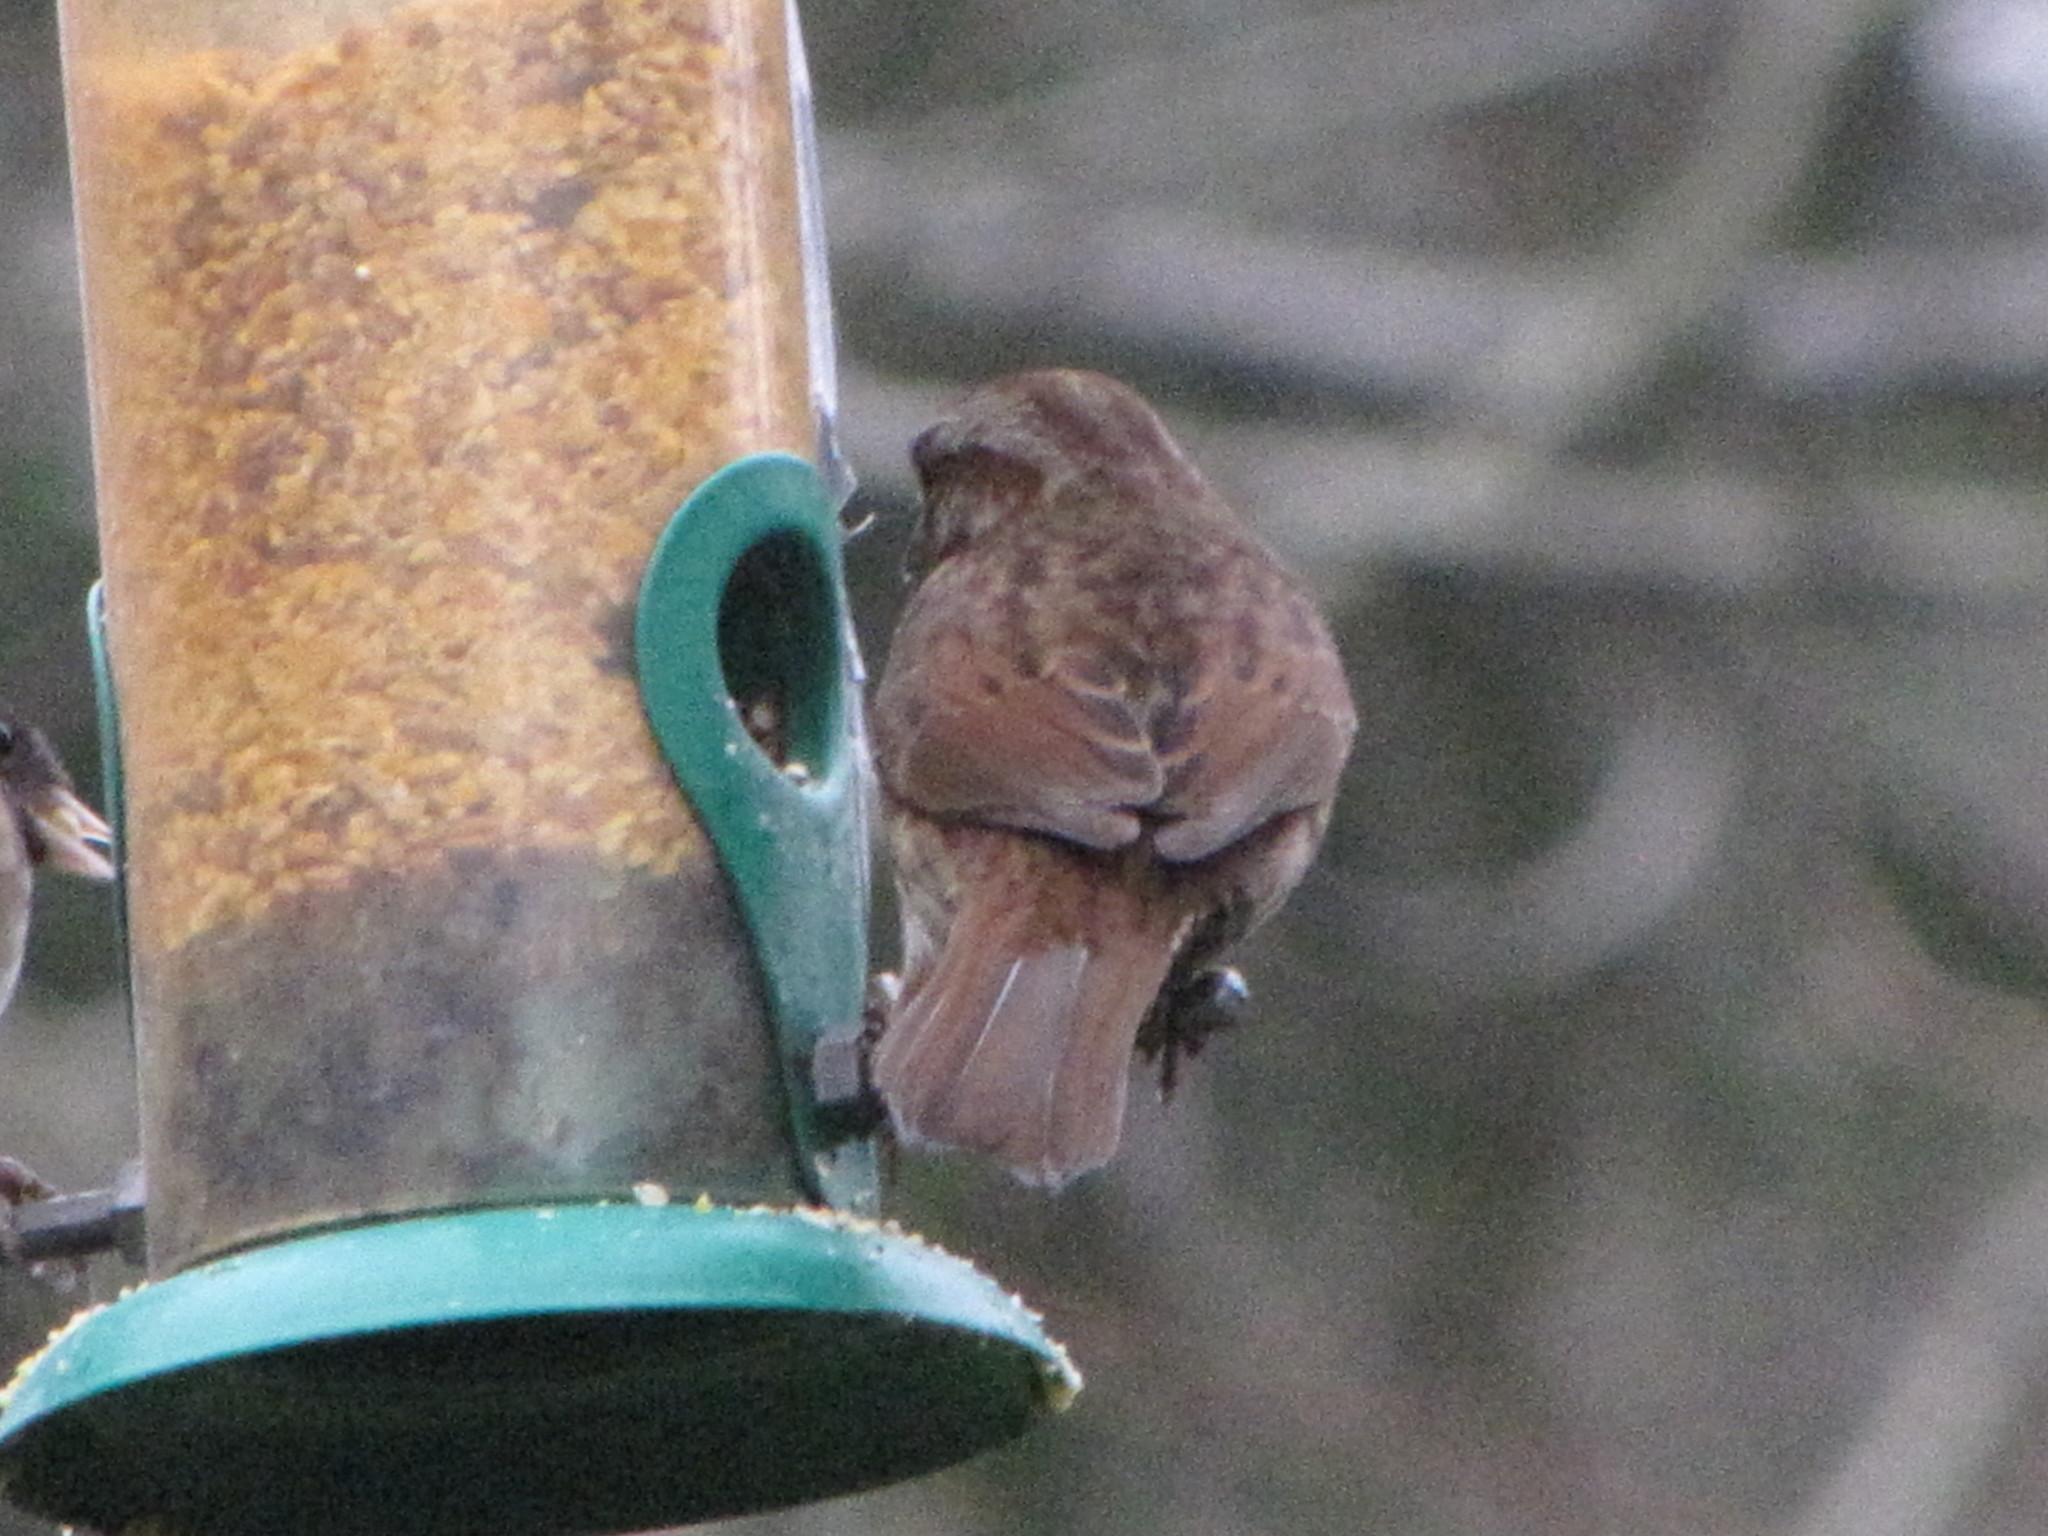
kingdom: Animalia
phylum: Chordata
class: Aves
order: Passeriformes
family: Passerellidae
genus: Melospiza
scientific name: Melospiza melodia
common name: Song sparrow
